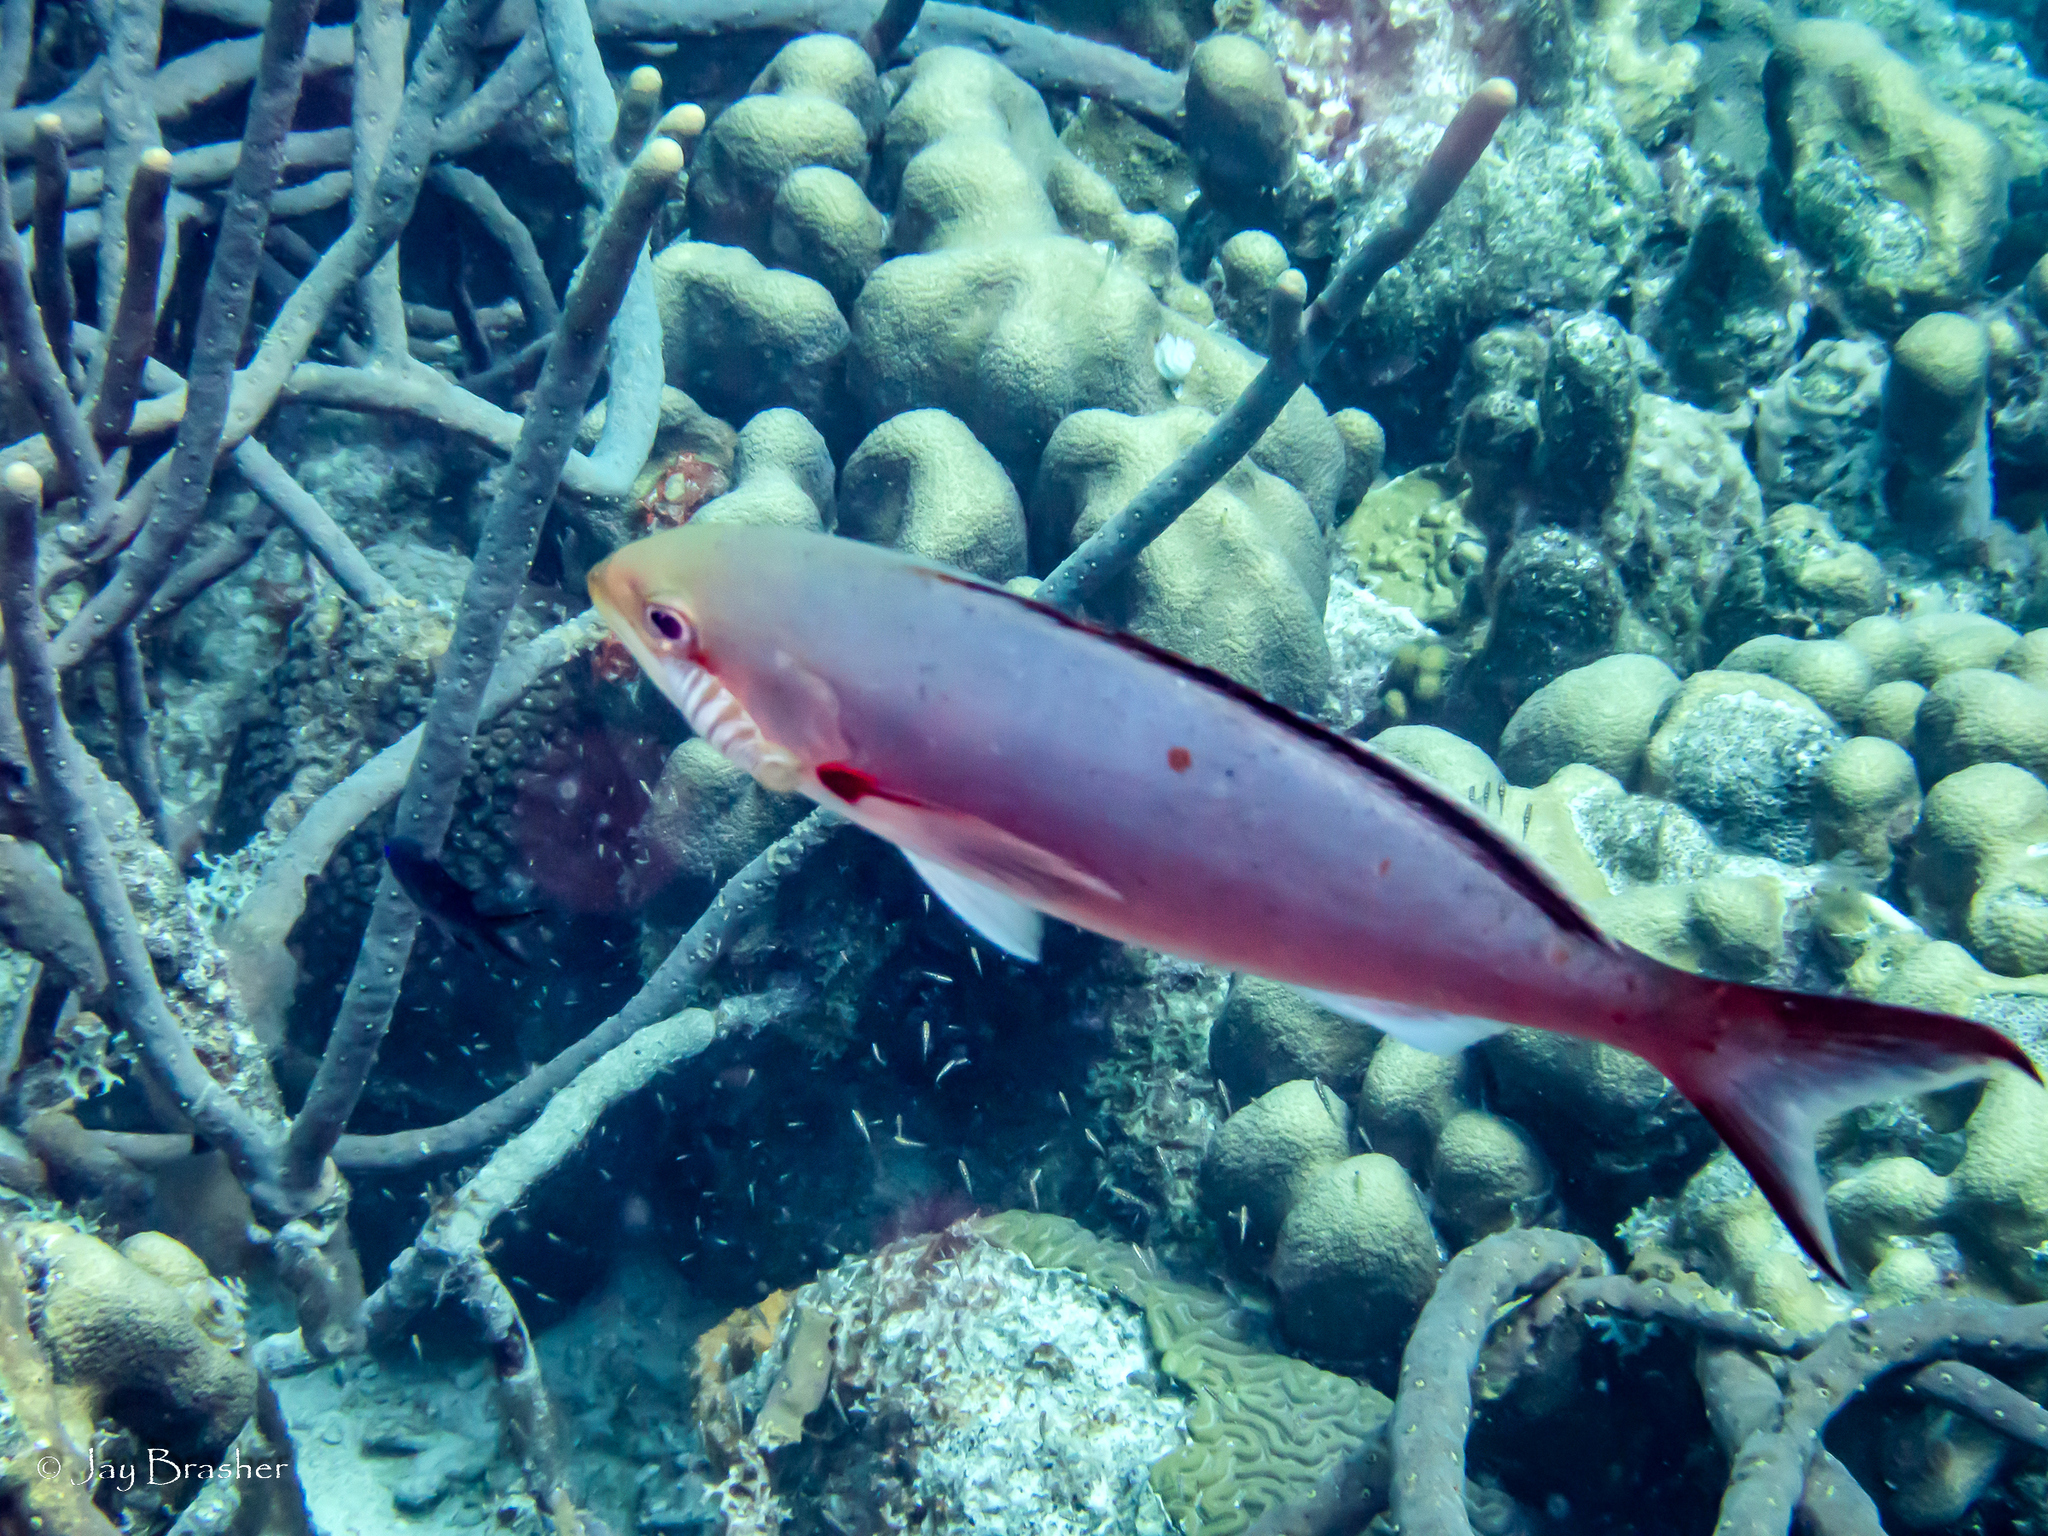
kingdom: Animalia
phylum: Arthropoda
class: Malacostraca
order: Isopoda
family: Cymothoidae
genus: Anilocra
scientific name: Anilocra haemuli
